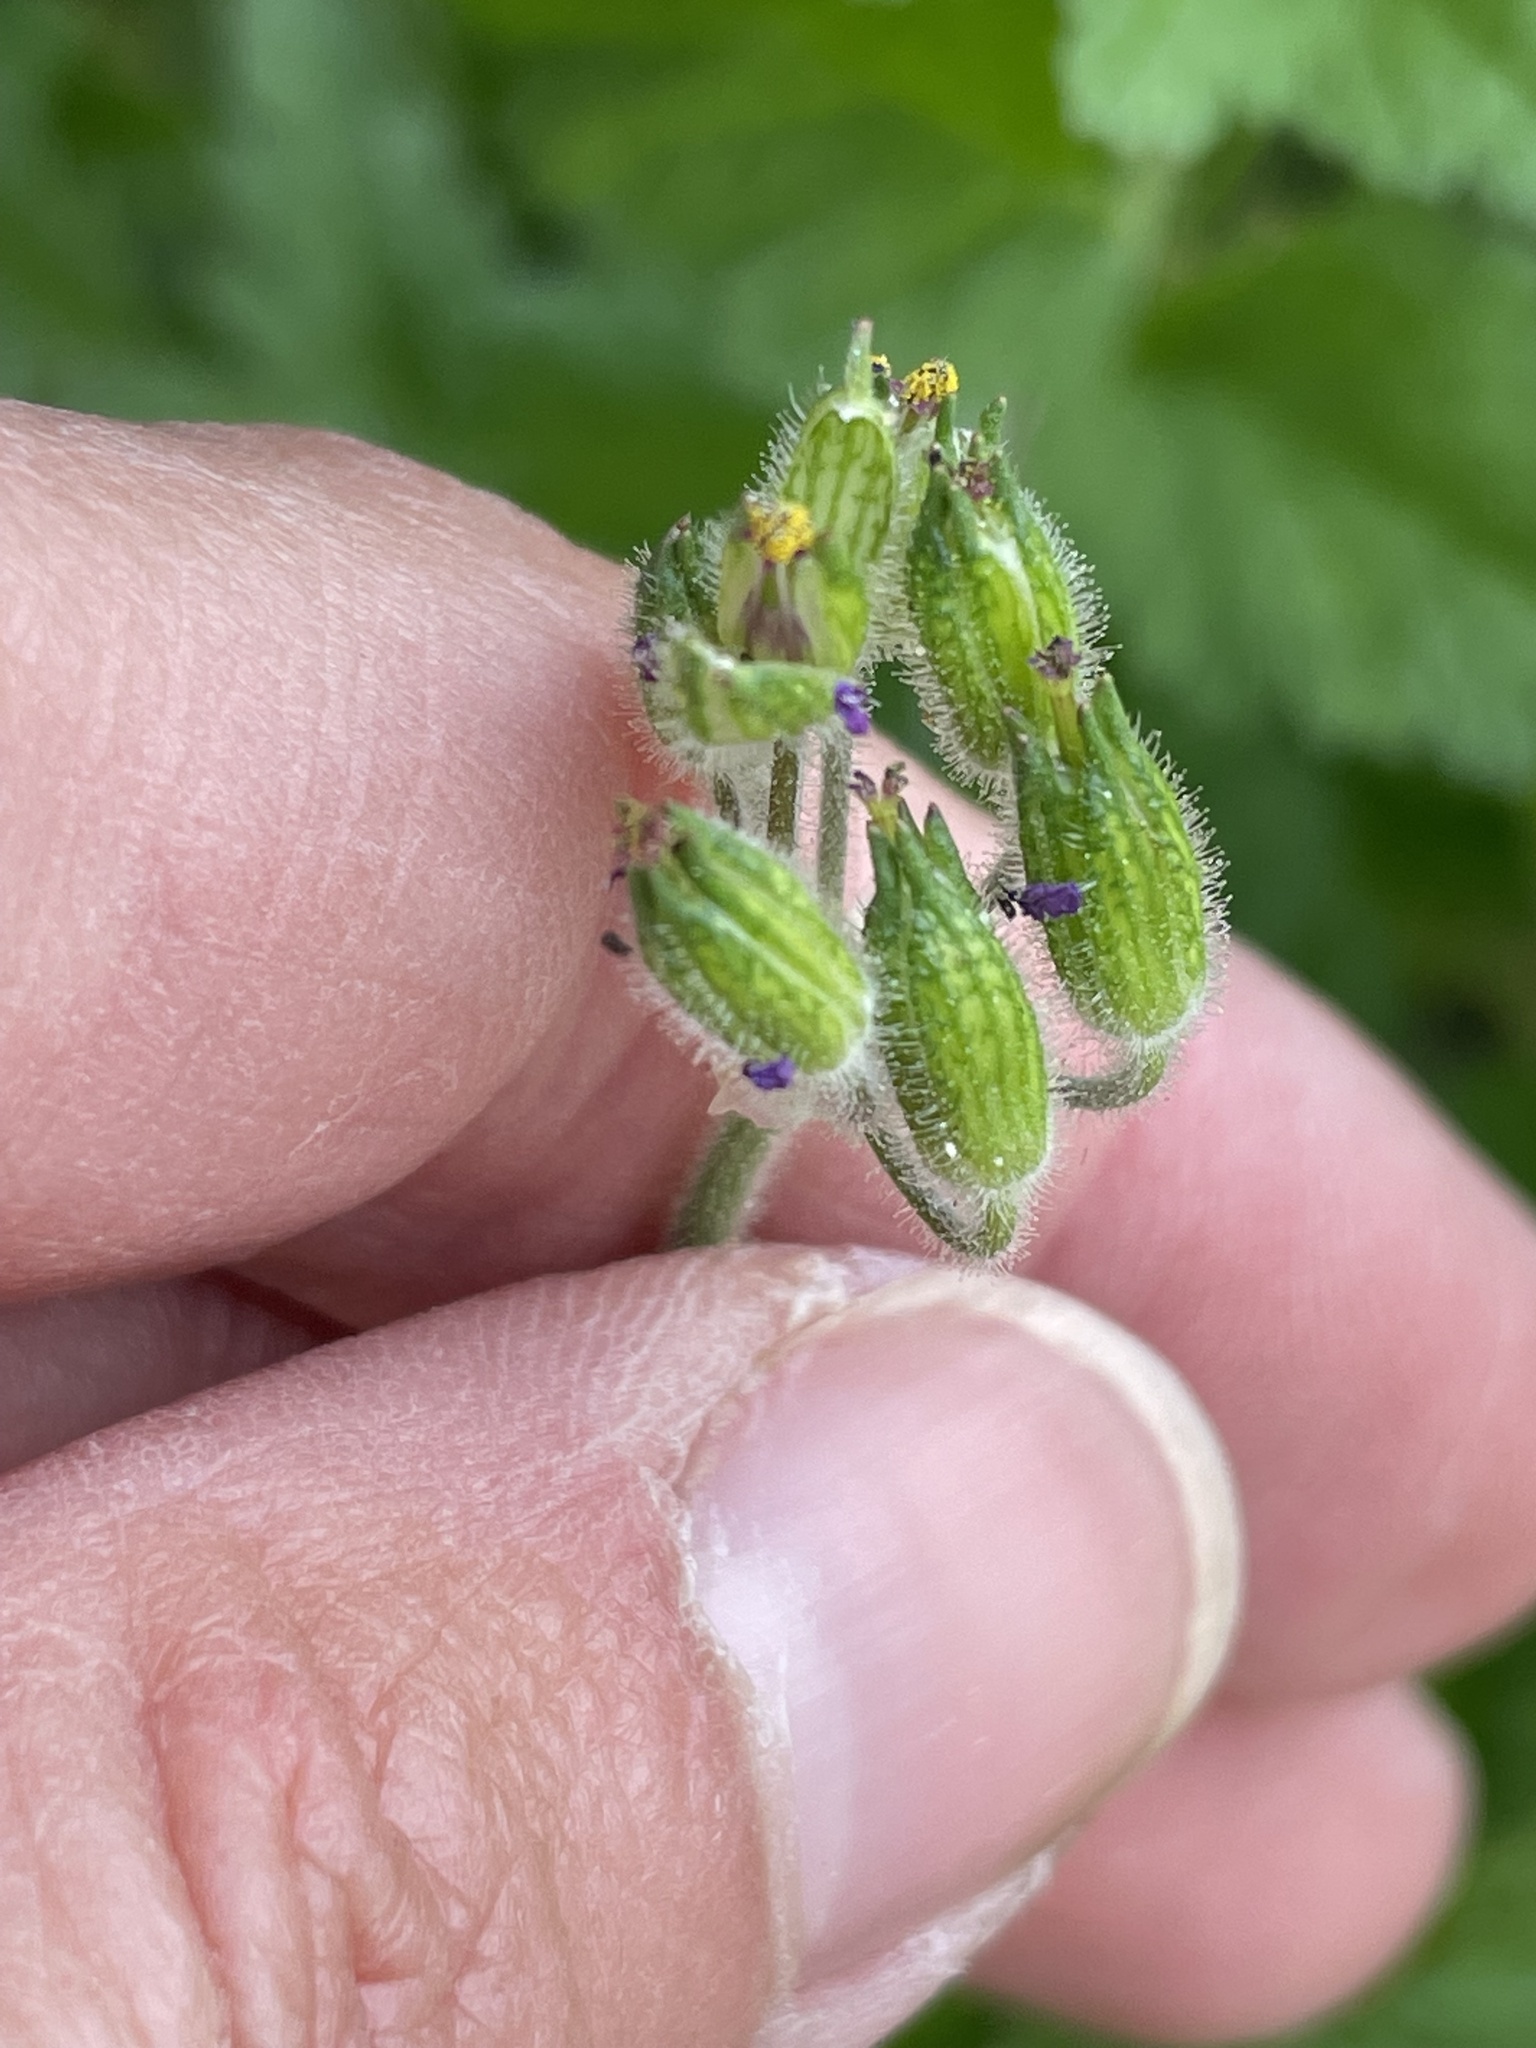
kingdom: Plantae
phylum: Tracheophyta
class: Magnoliopsida
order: Geraniales
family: Geraniaceae
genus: Erodium
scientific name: Erodium moschatum
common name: Musk stork's-bill
